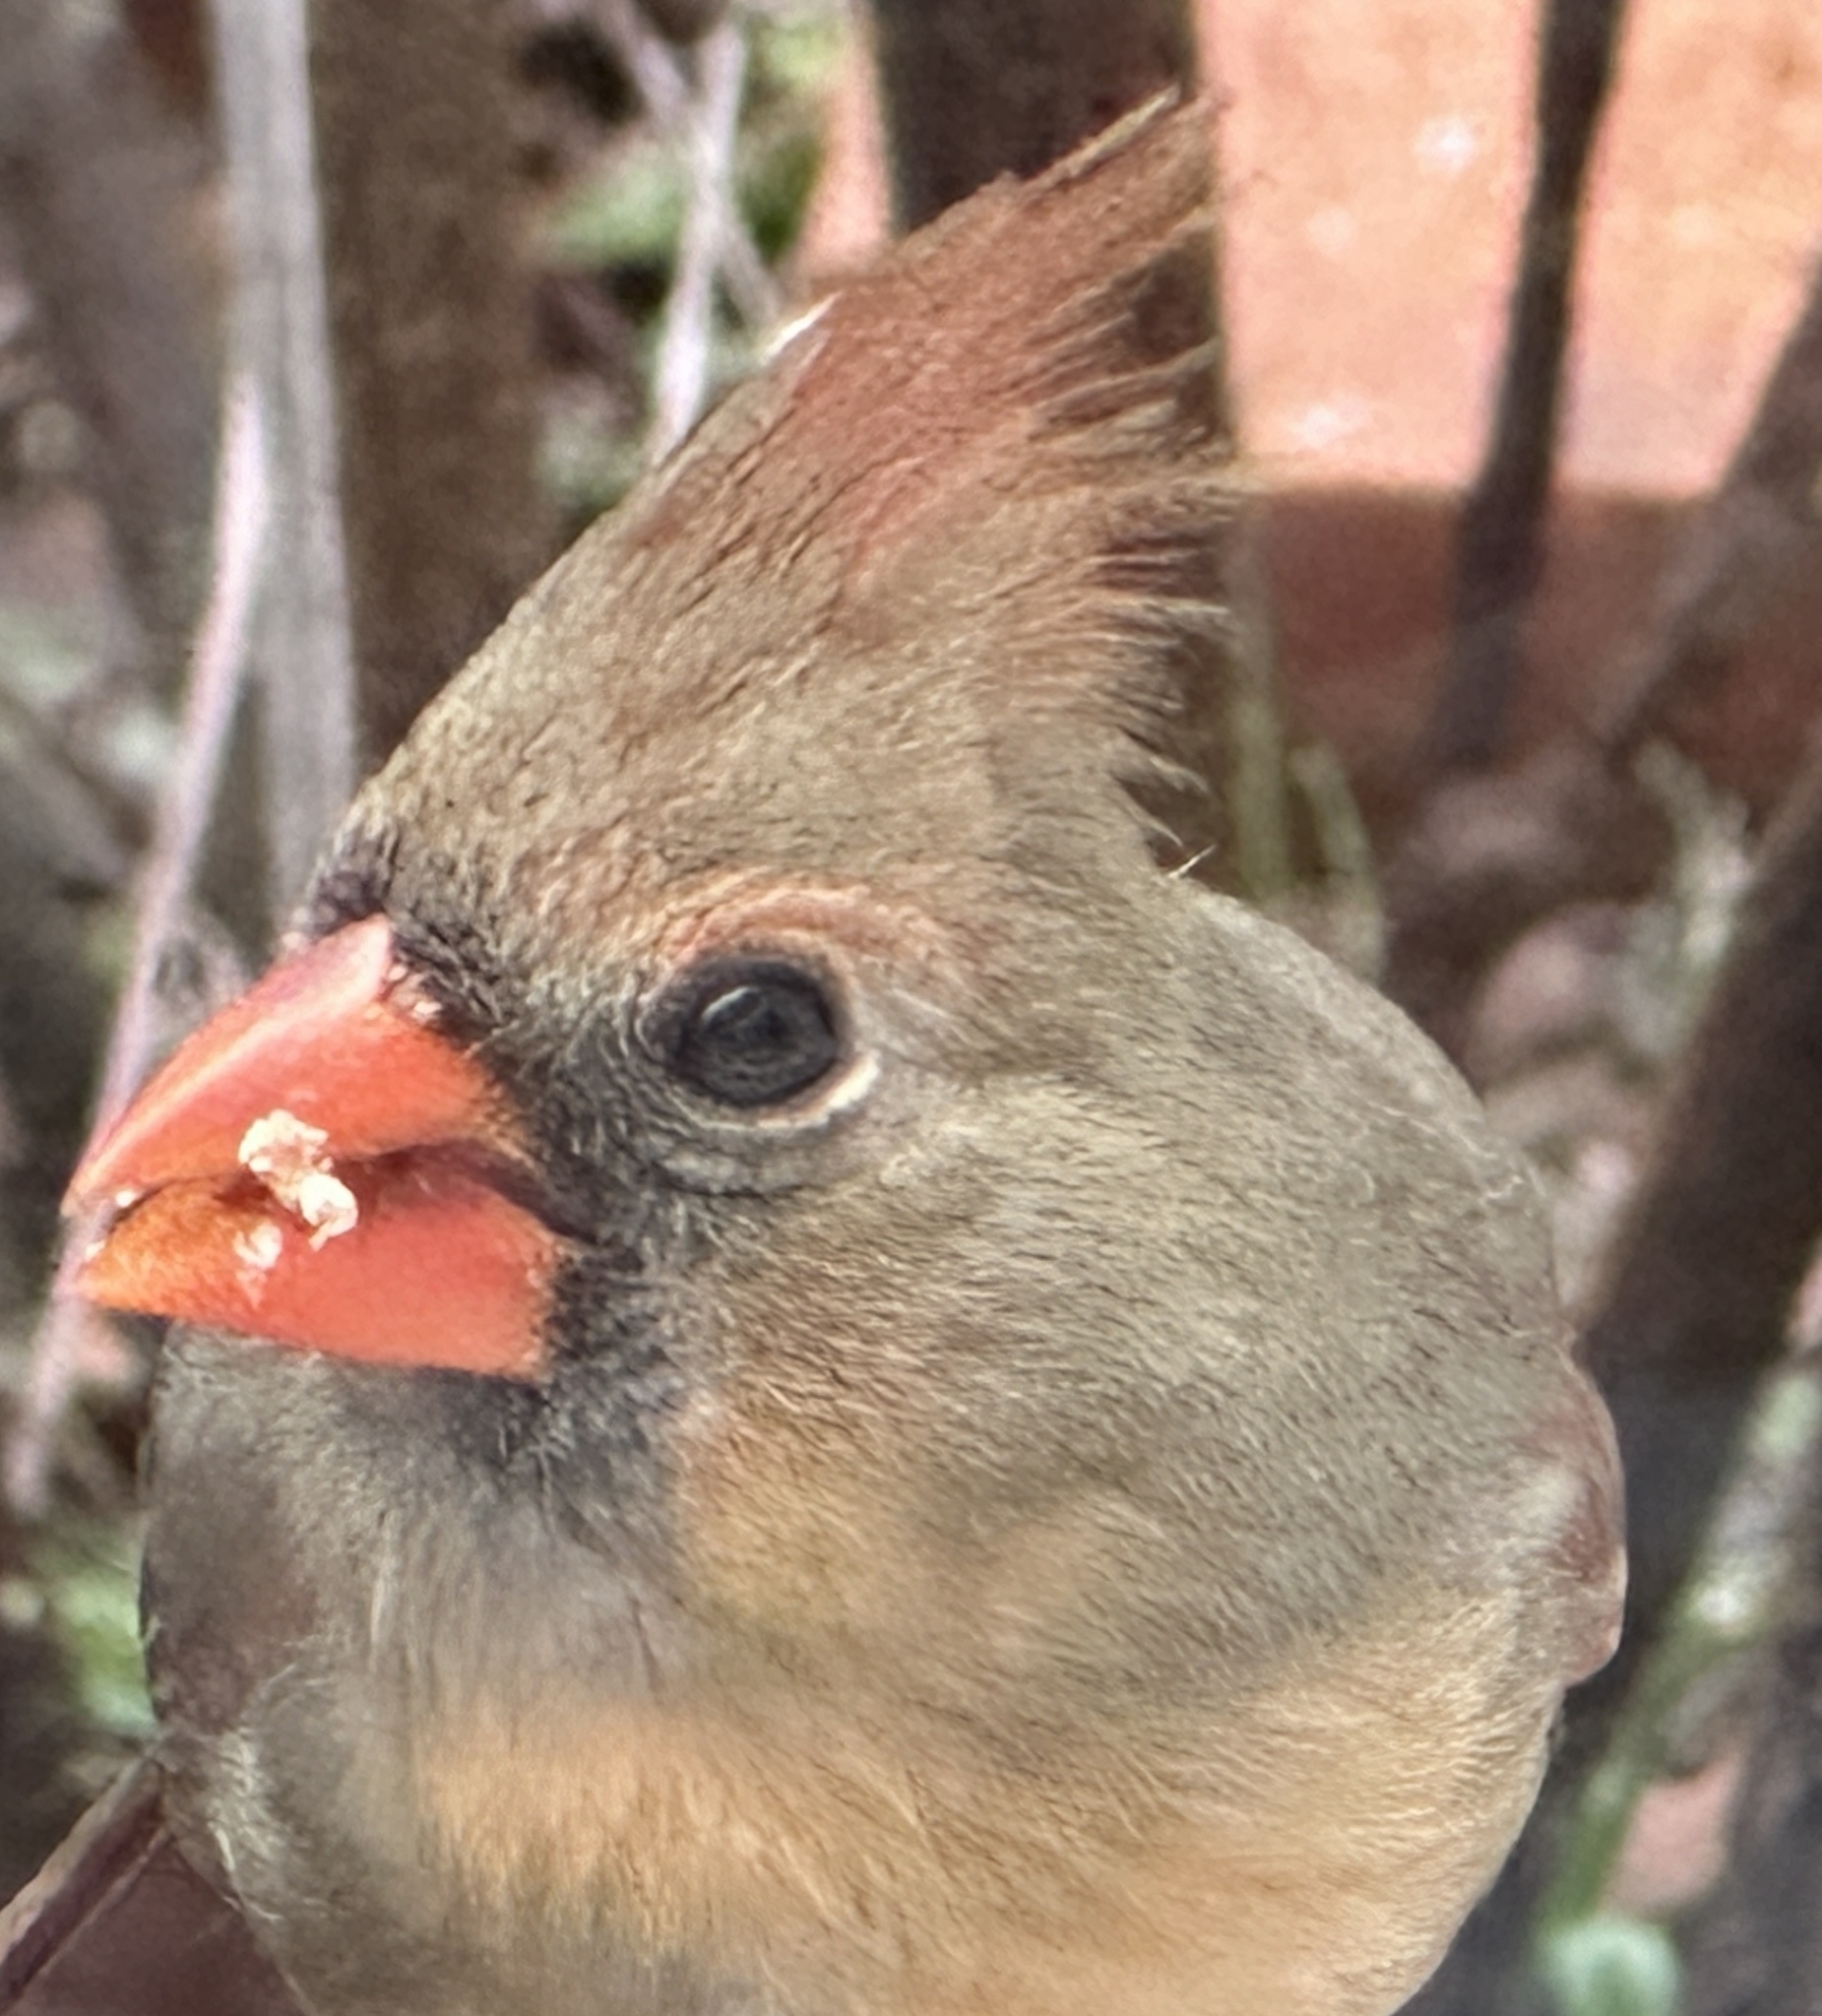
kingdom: Animalia
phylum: Chordata
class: Aves
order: Passeriformes
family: Cardinalidae
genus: Cardinalis
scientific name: Cardinalis cardinalis
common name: Northern cardinal
